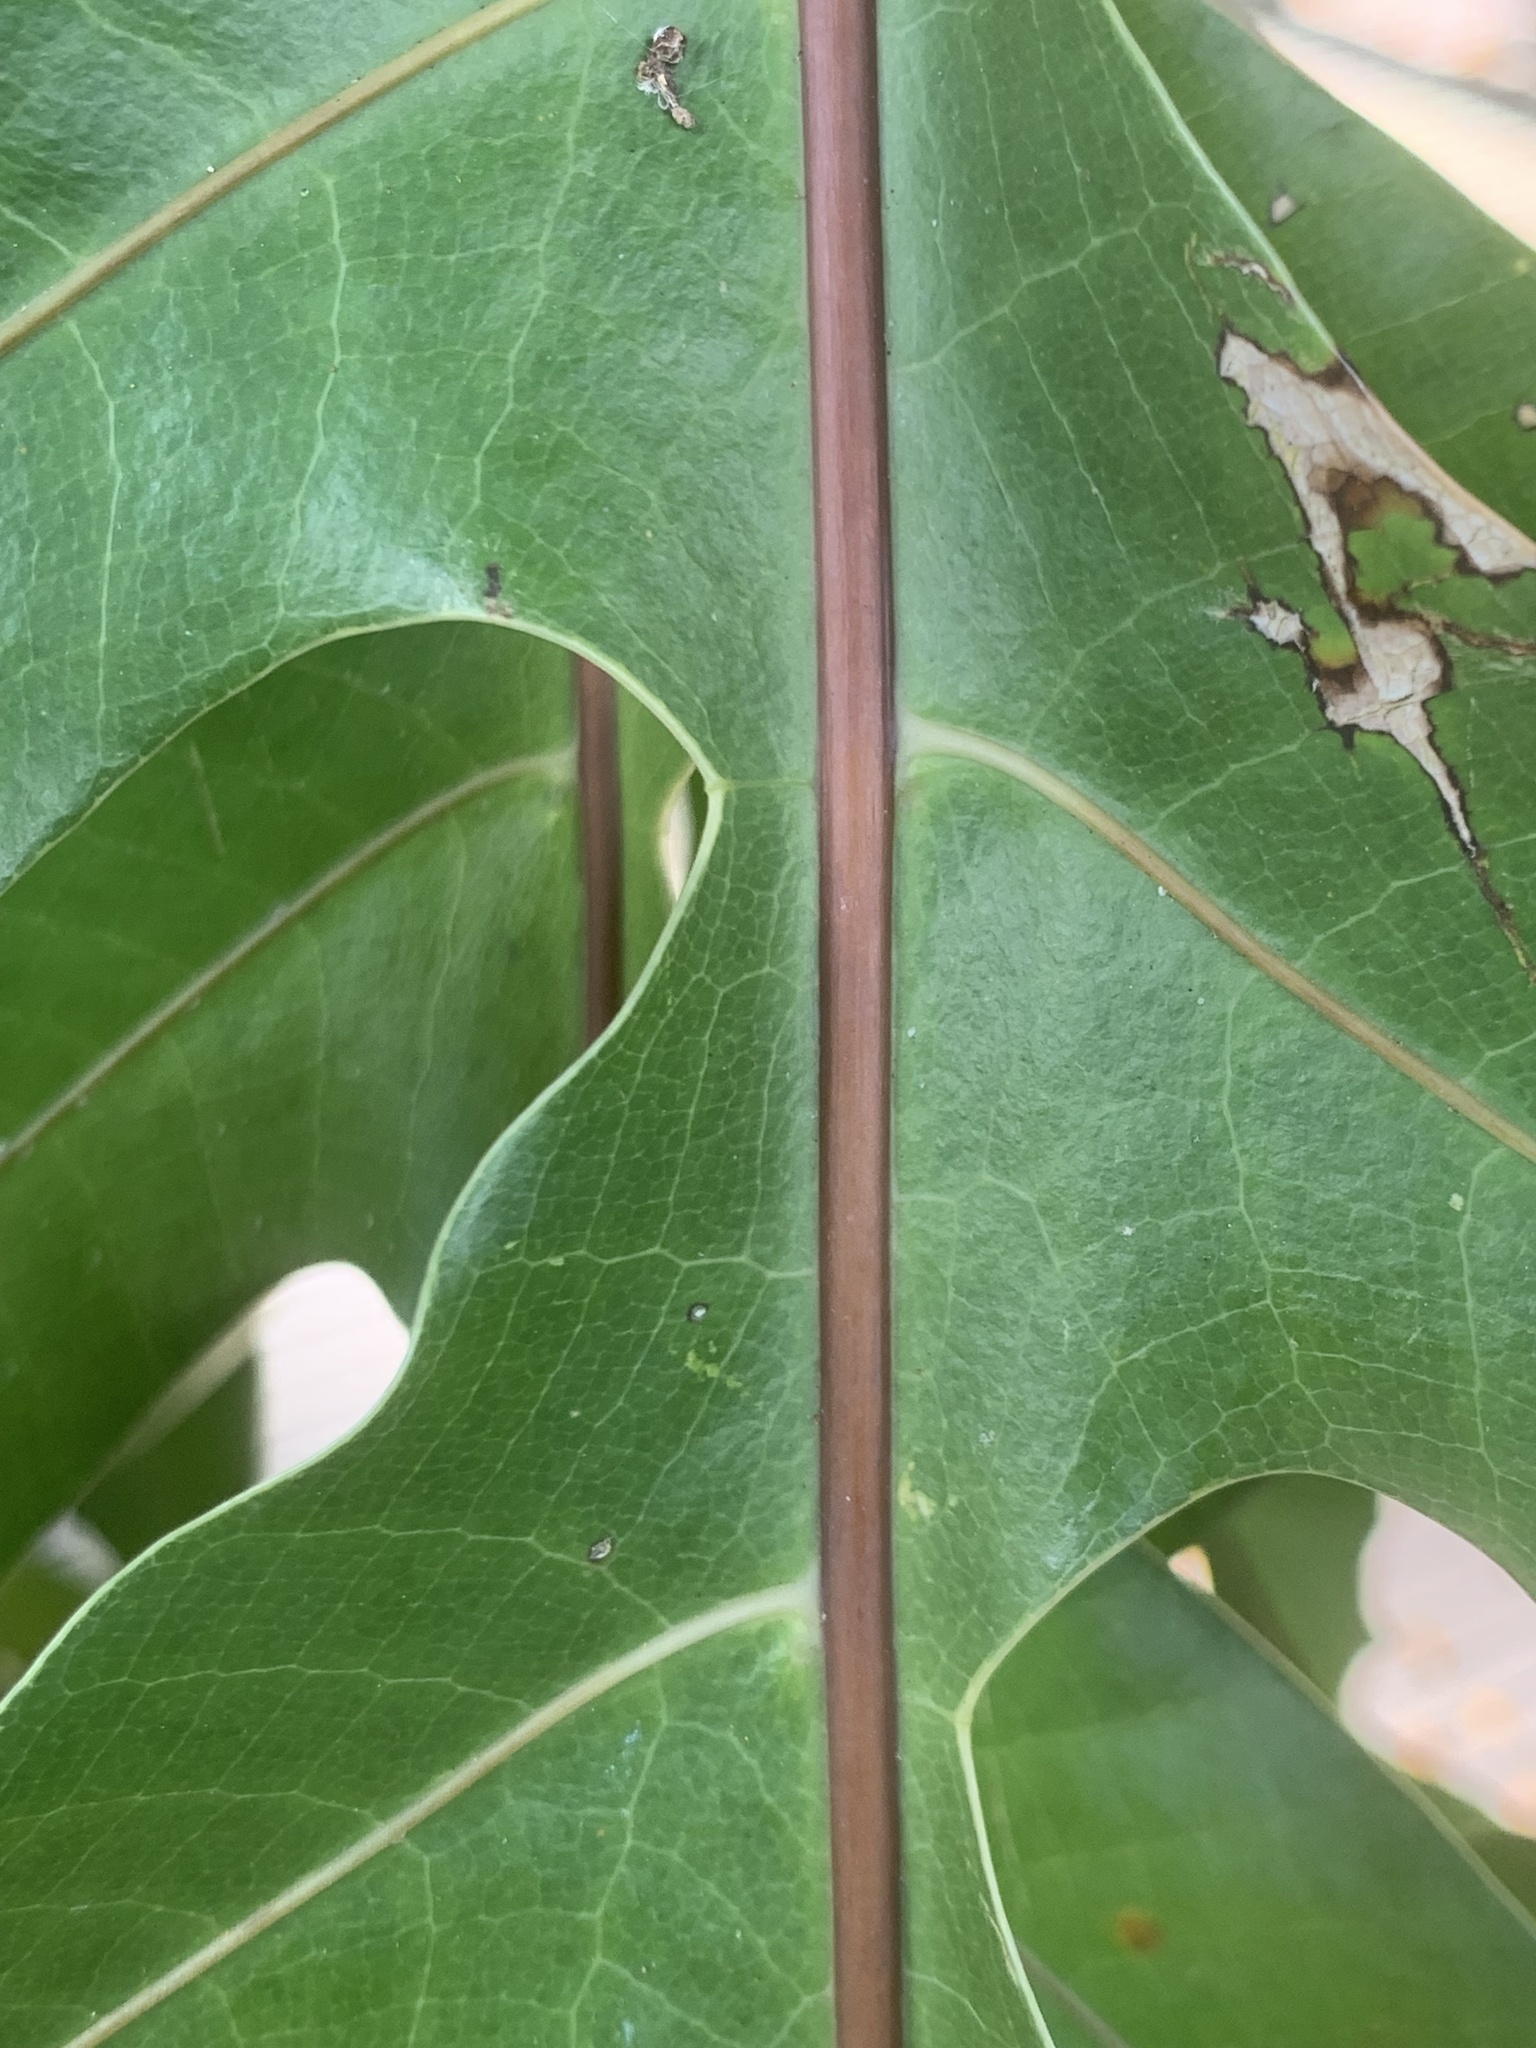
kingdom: Plantae
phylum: Tracheophyta
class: Polypodiopsida
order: Polypodiales
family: Polypodiaceae
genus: Drynaria
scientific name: Drynaria quercifolia
